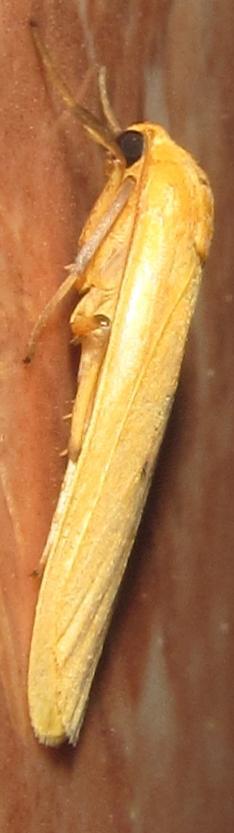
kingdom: Animalia
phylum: Arthropoda
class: Insecta
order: Lepidoptera
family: Erebidae
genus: Cragia
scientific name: Cragia distigmata
